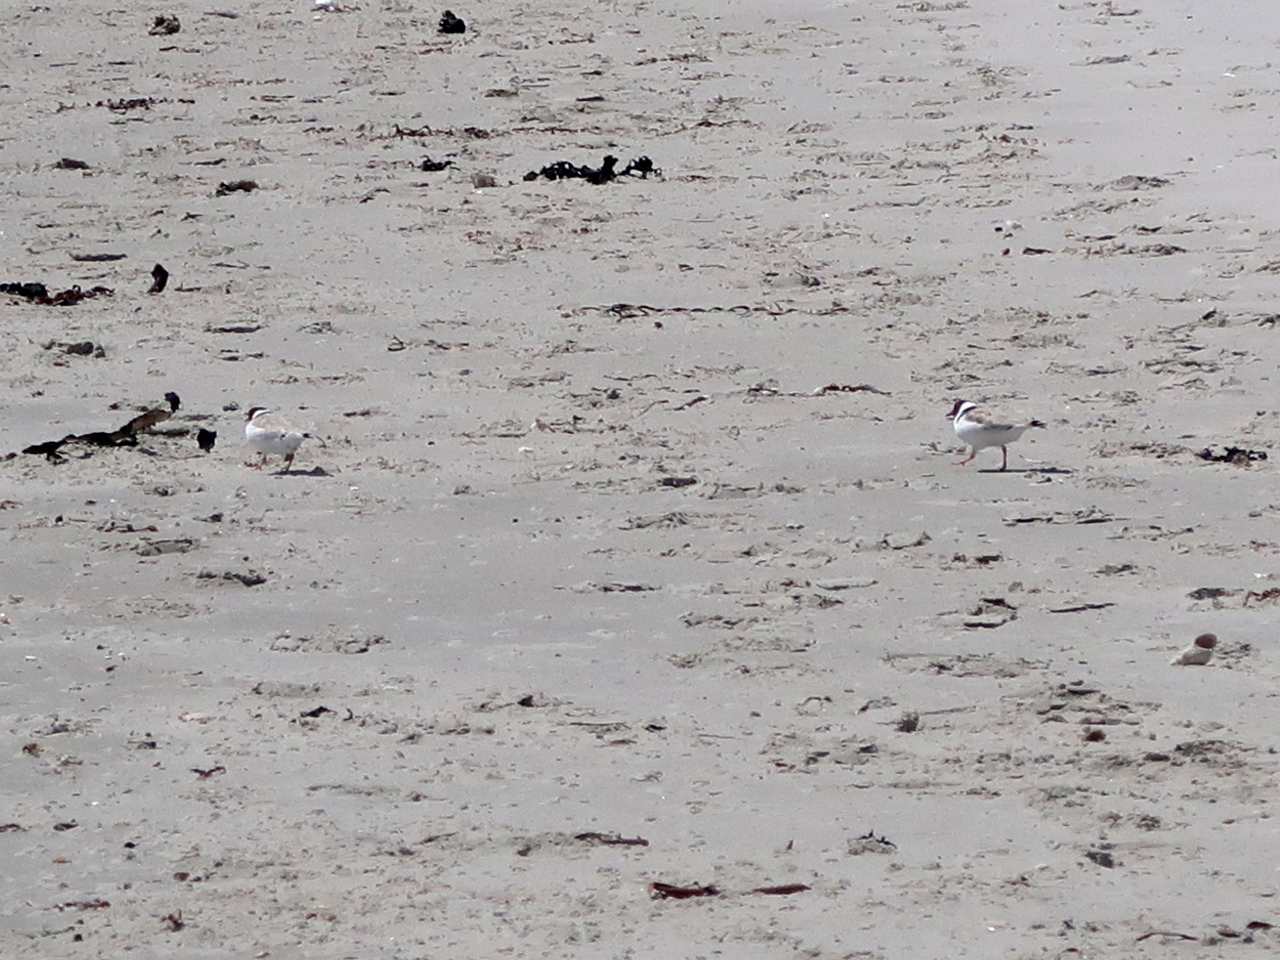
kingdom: Animalia
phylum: Chordata
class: Aves
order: Charadriiformes
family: Charadriidae
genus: Thinornis
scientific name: Thinornis cucullatus
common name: Hooded dotterel
